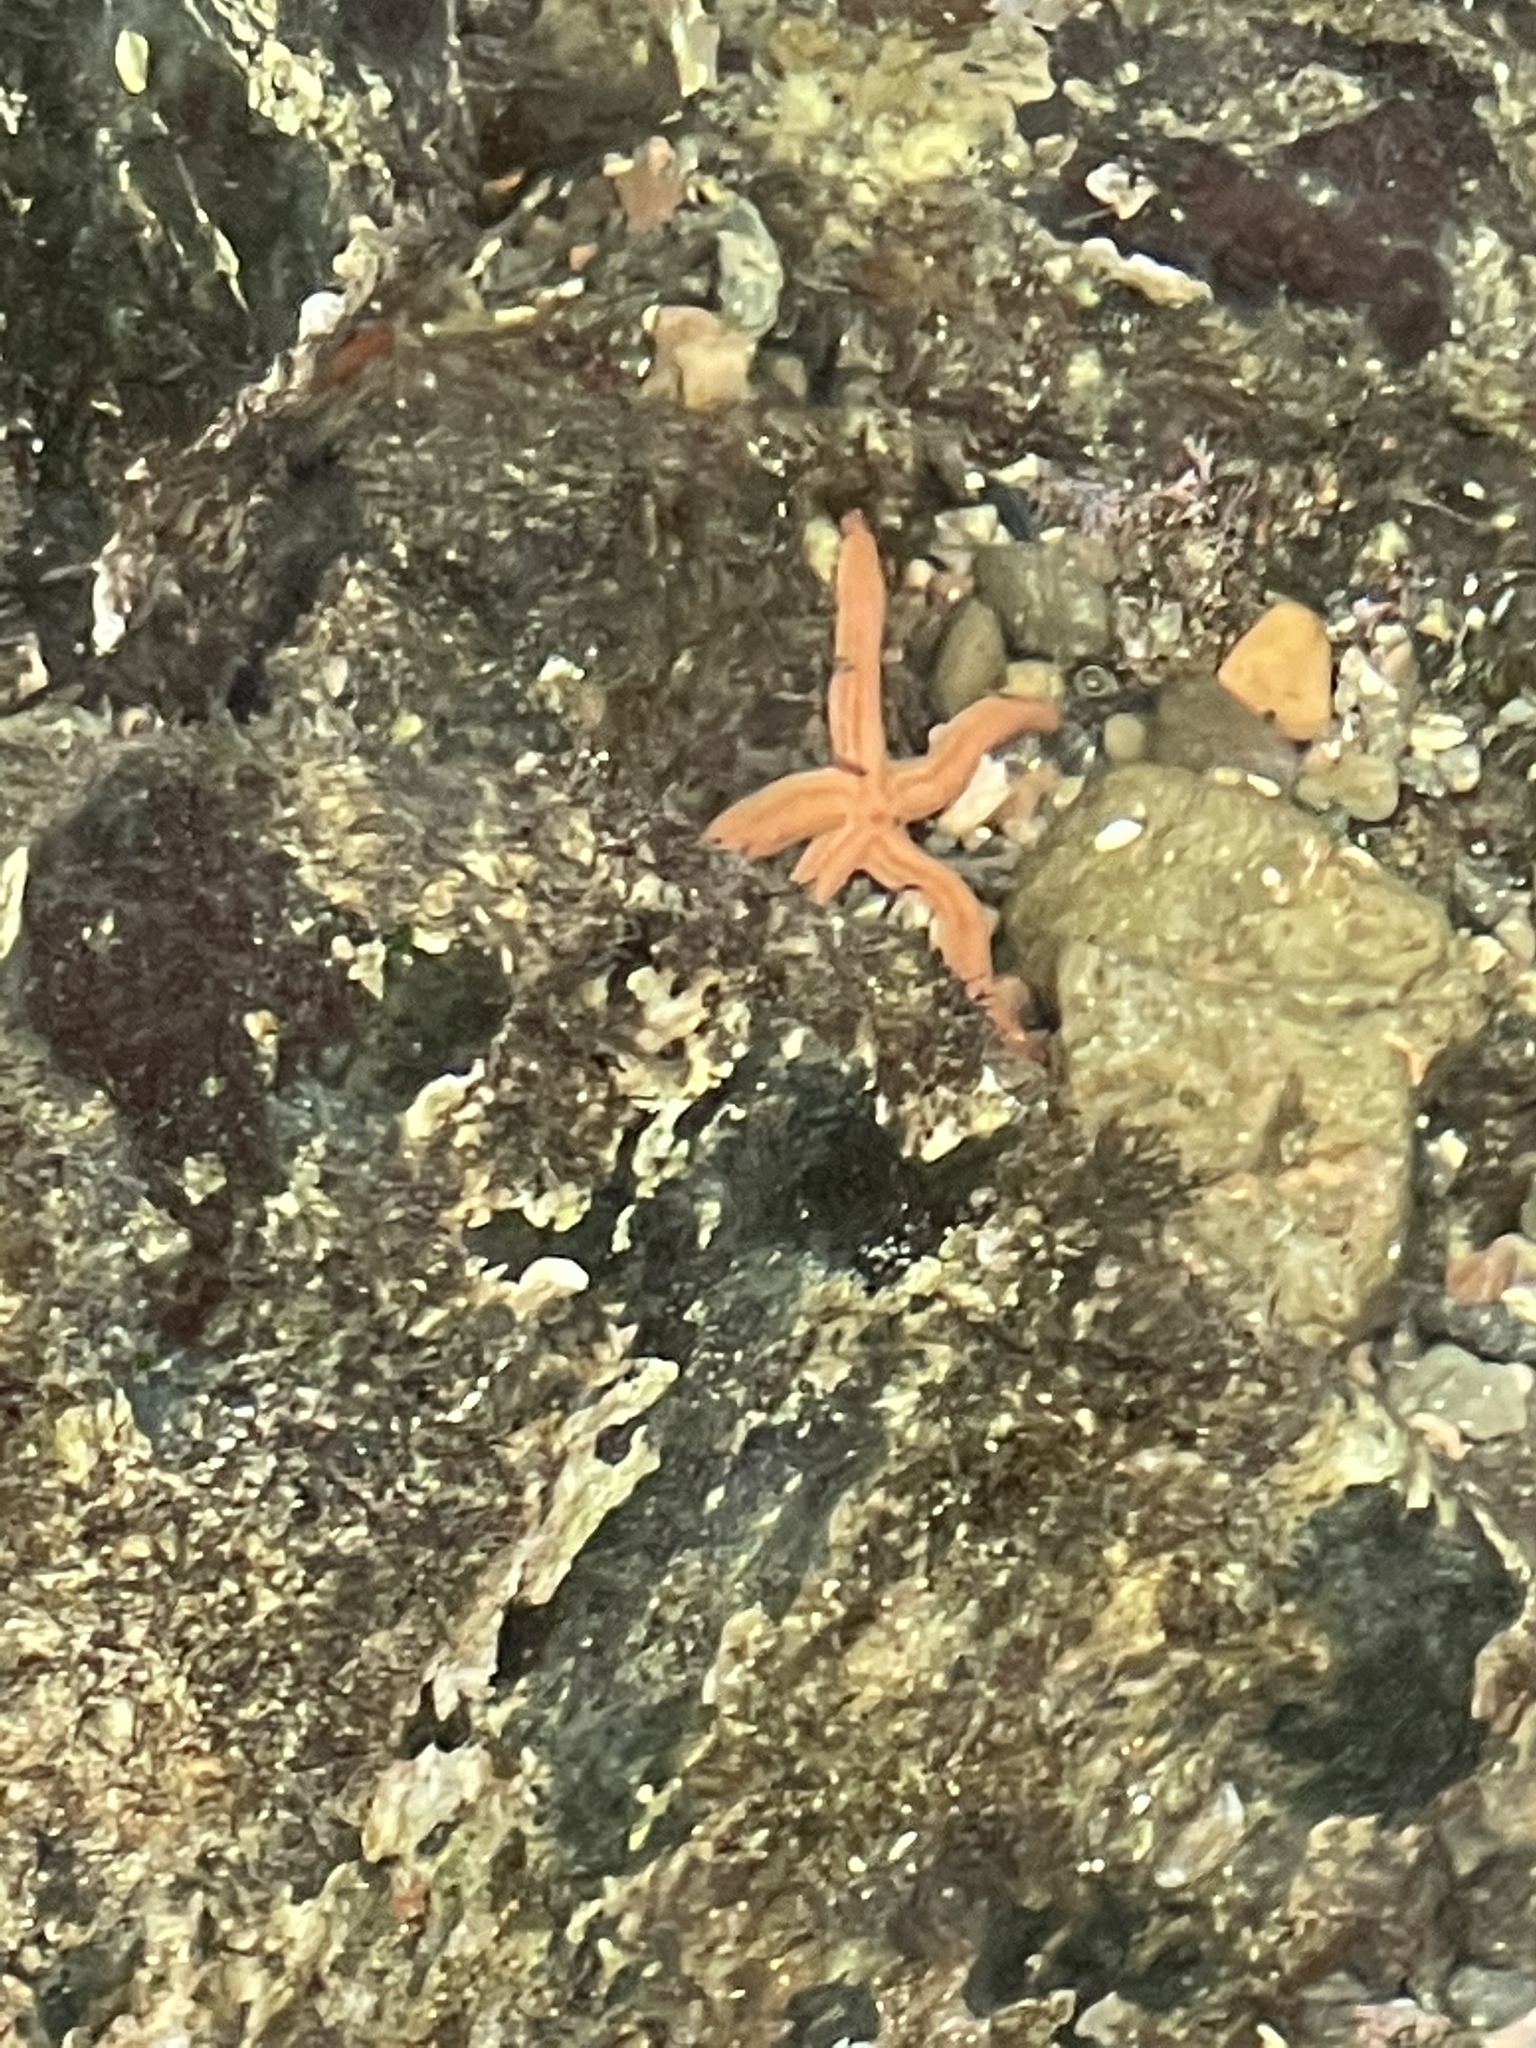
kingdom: Animalia
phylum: Echinodermata
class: Asteroidea
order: Valvatida
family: Ophidiasteridae
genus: Phataria
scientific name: Phataria unifascialis
